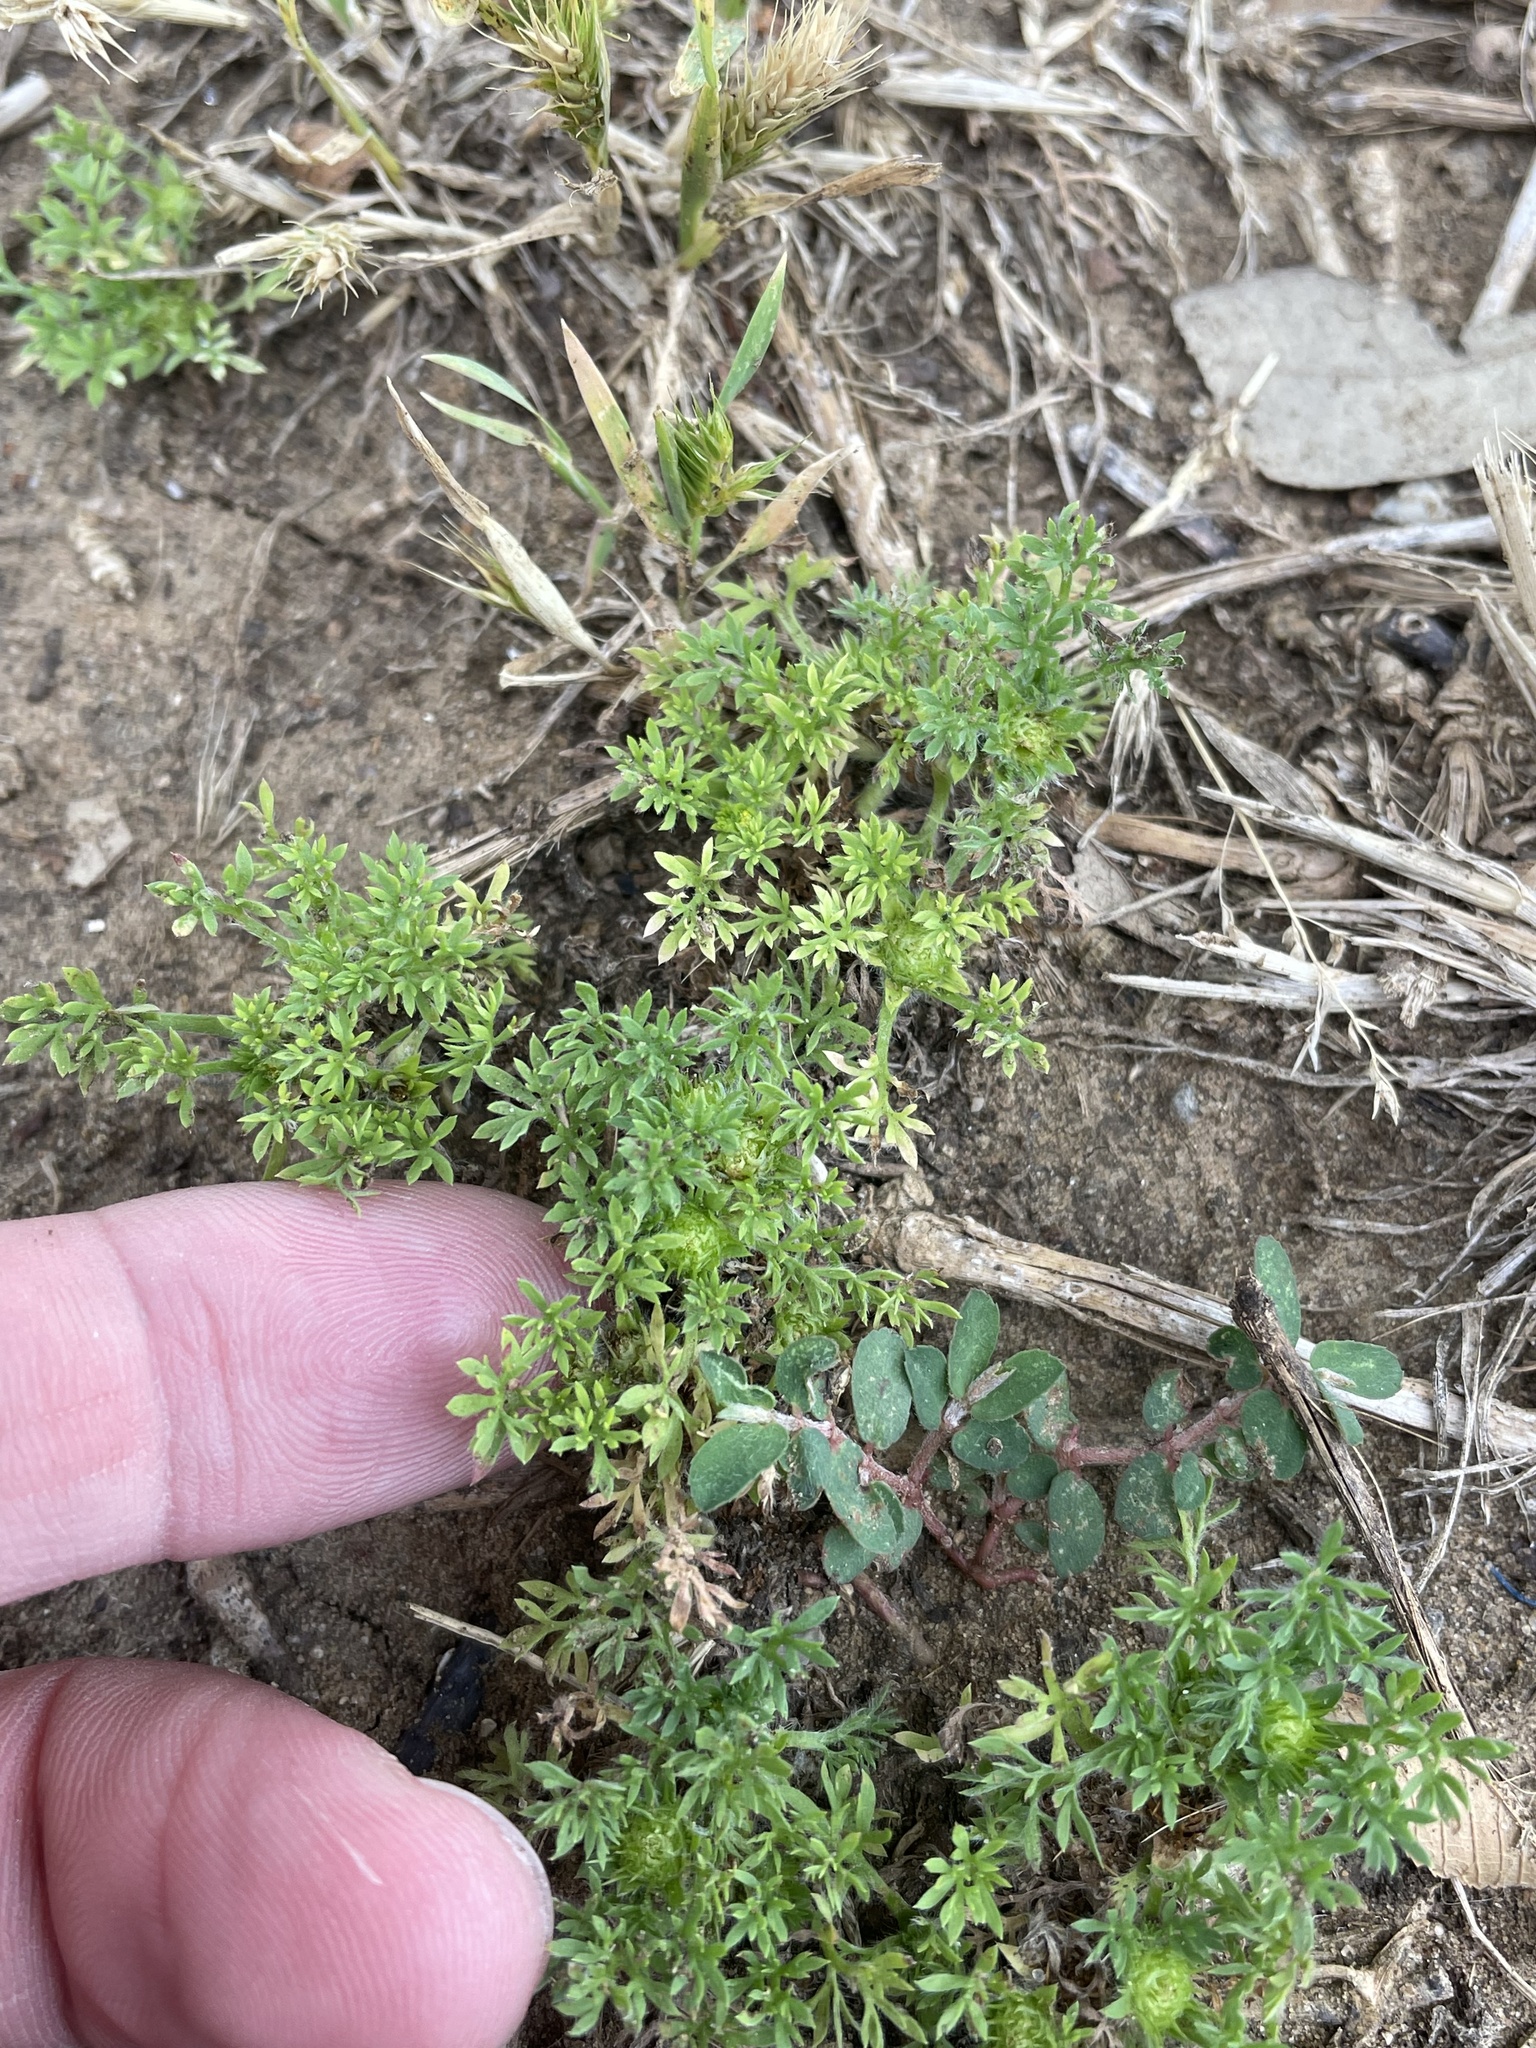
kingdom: Plantae
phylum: Tracheophyta
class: Magnoliopsida
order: Asterales
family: Asteraceae
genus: Soliva
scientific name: Soliva sessilis
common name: Field burrweed
